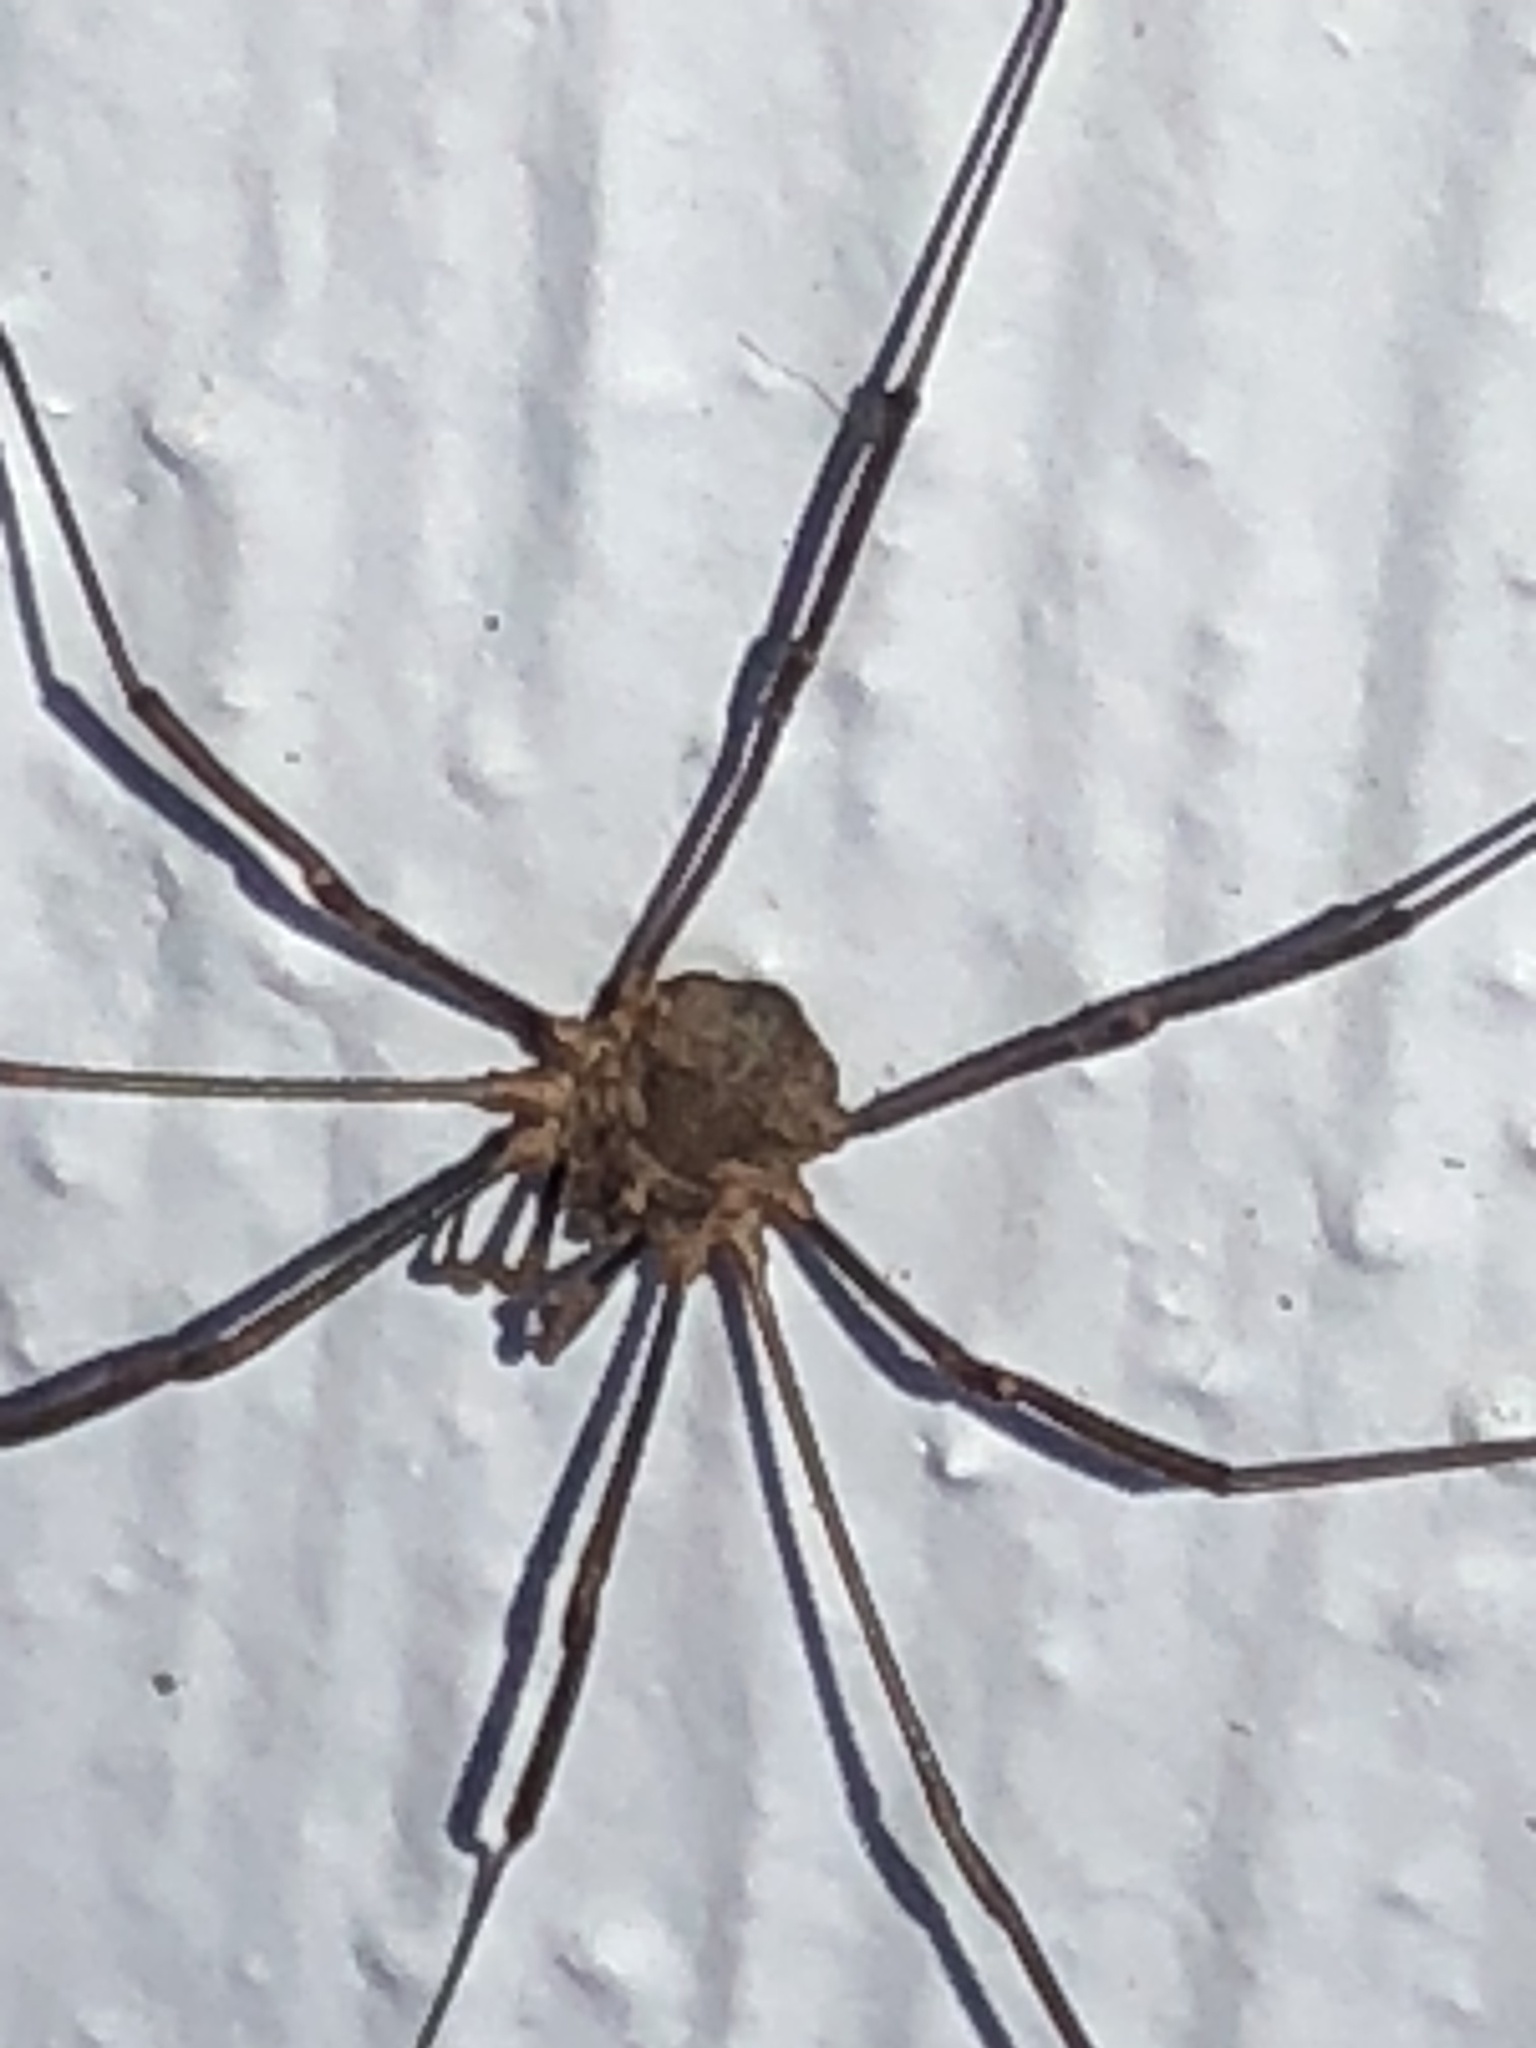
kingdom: Animalia
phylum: Arthropoda
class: Arachnida
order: Opiliones
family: Phalangiidae
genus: Phalangium
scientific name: Phalangium opilio
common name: Daddy longleg
